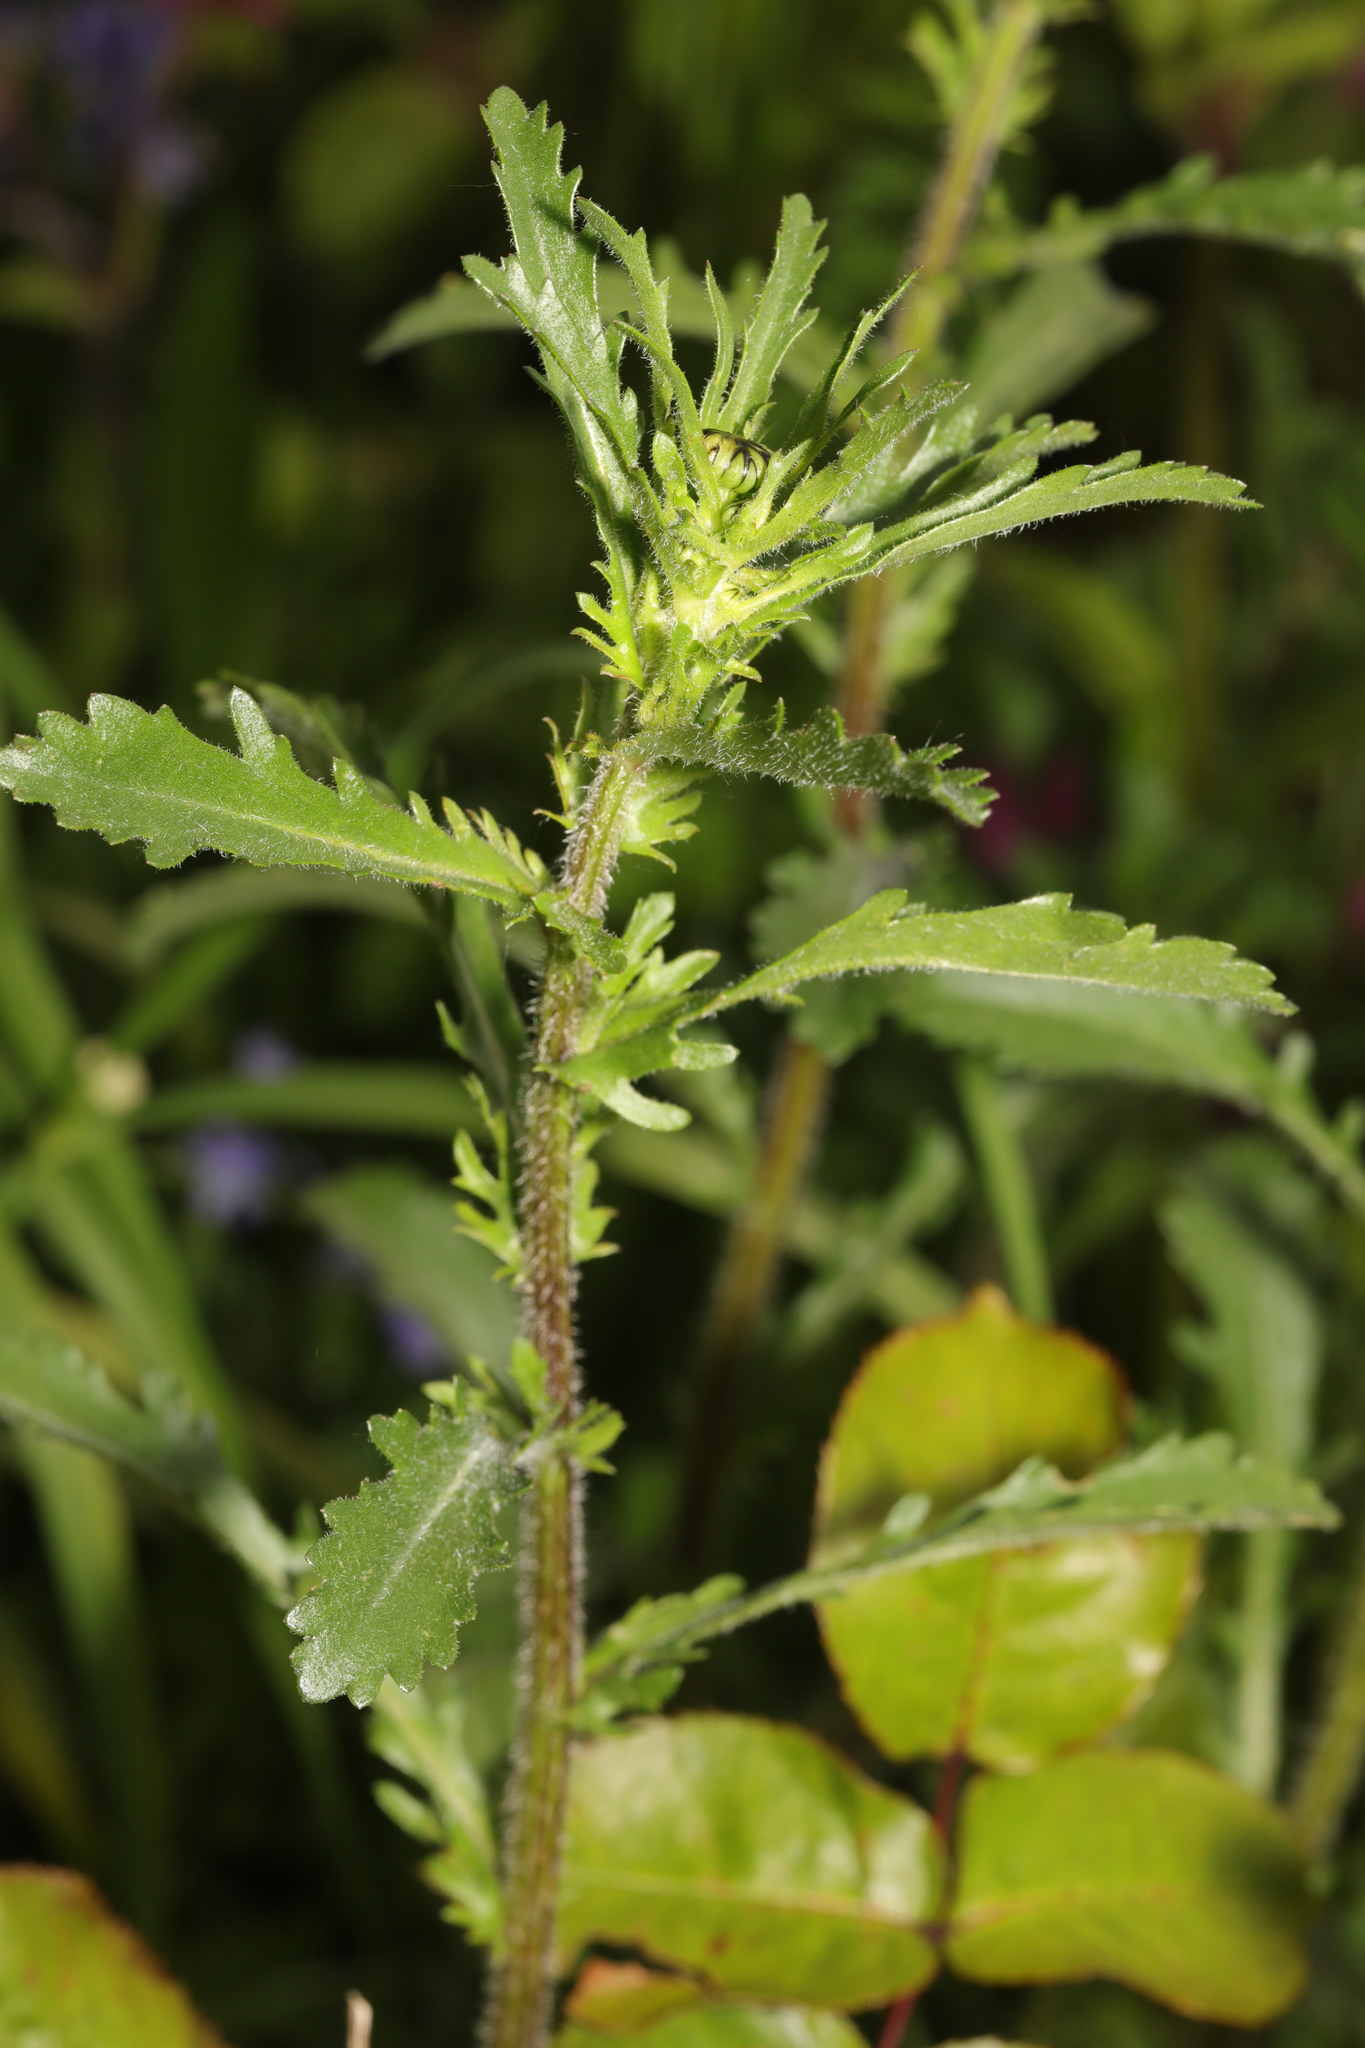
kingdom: Plantae
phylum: Tracheophyta
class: Magnoliopsida
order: Asterales
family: Asteraceae
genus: Leucanthemum
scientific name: Leucanthemum vulgare
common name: Oxeye daisy
